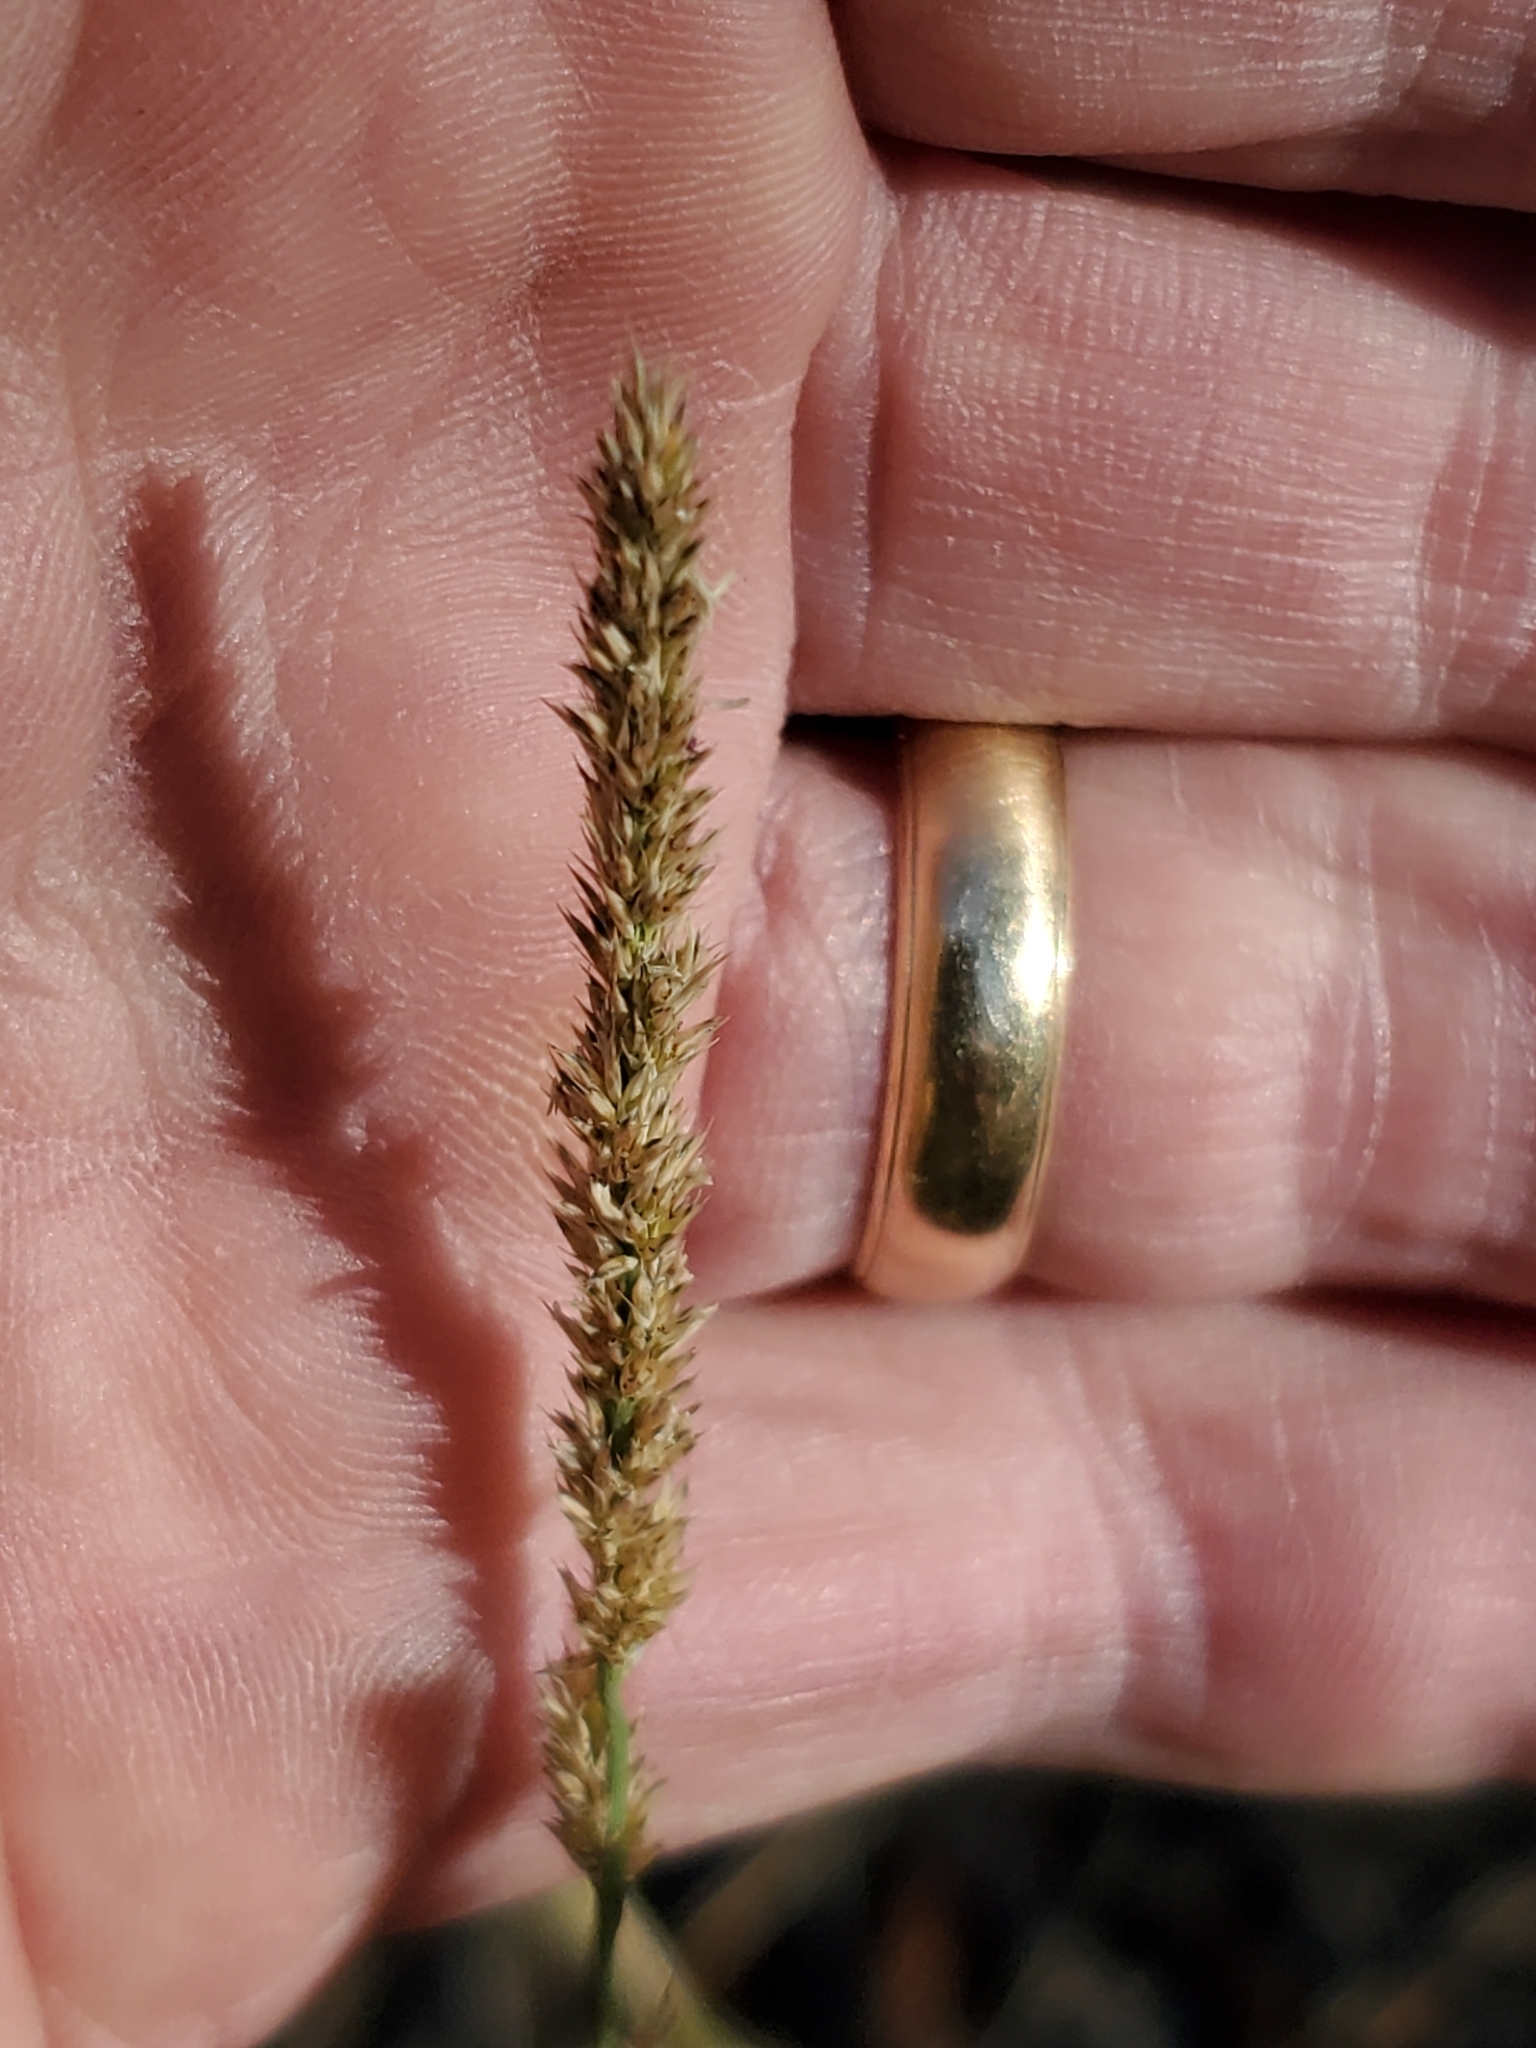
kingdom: Plantae
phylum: Tracheophyta
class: Liliopsida
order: Poales
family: Poaceae
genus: Muhlenbergia
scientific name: Muhlenbergia wrightii
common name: Spike muhly
